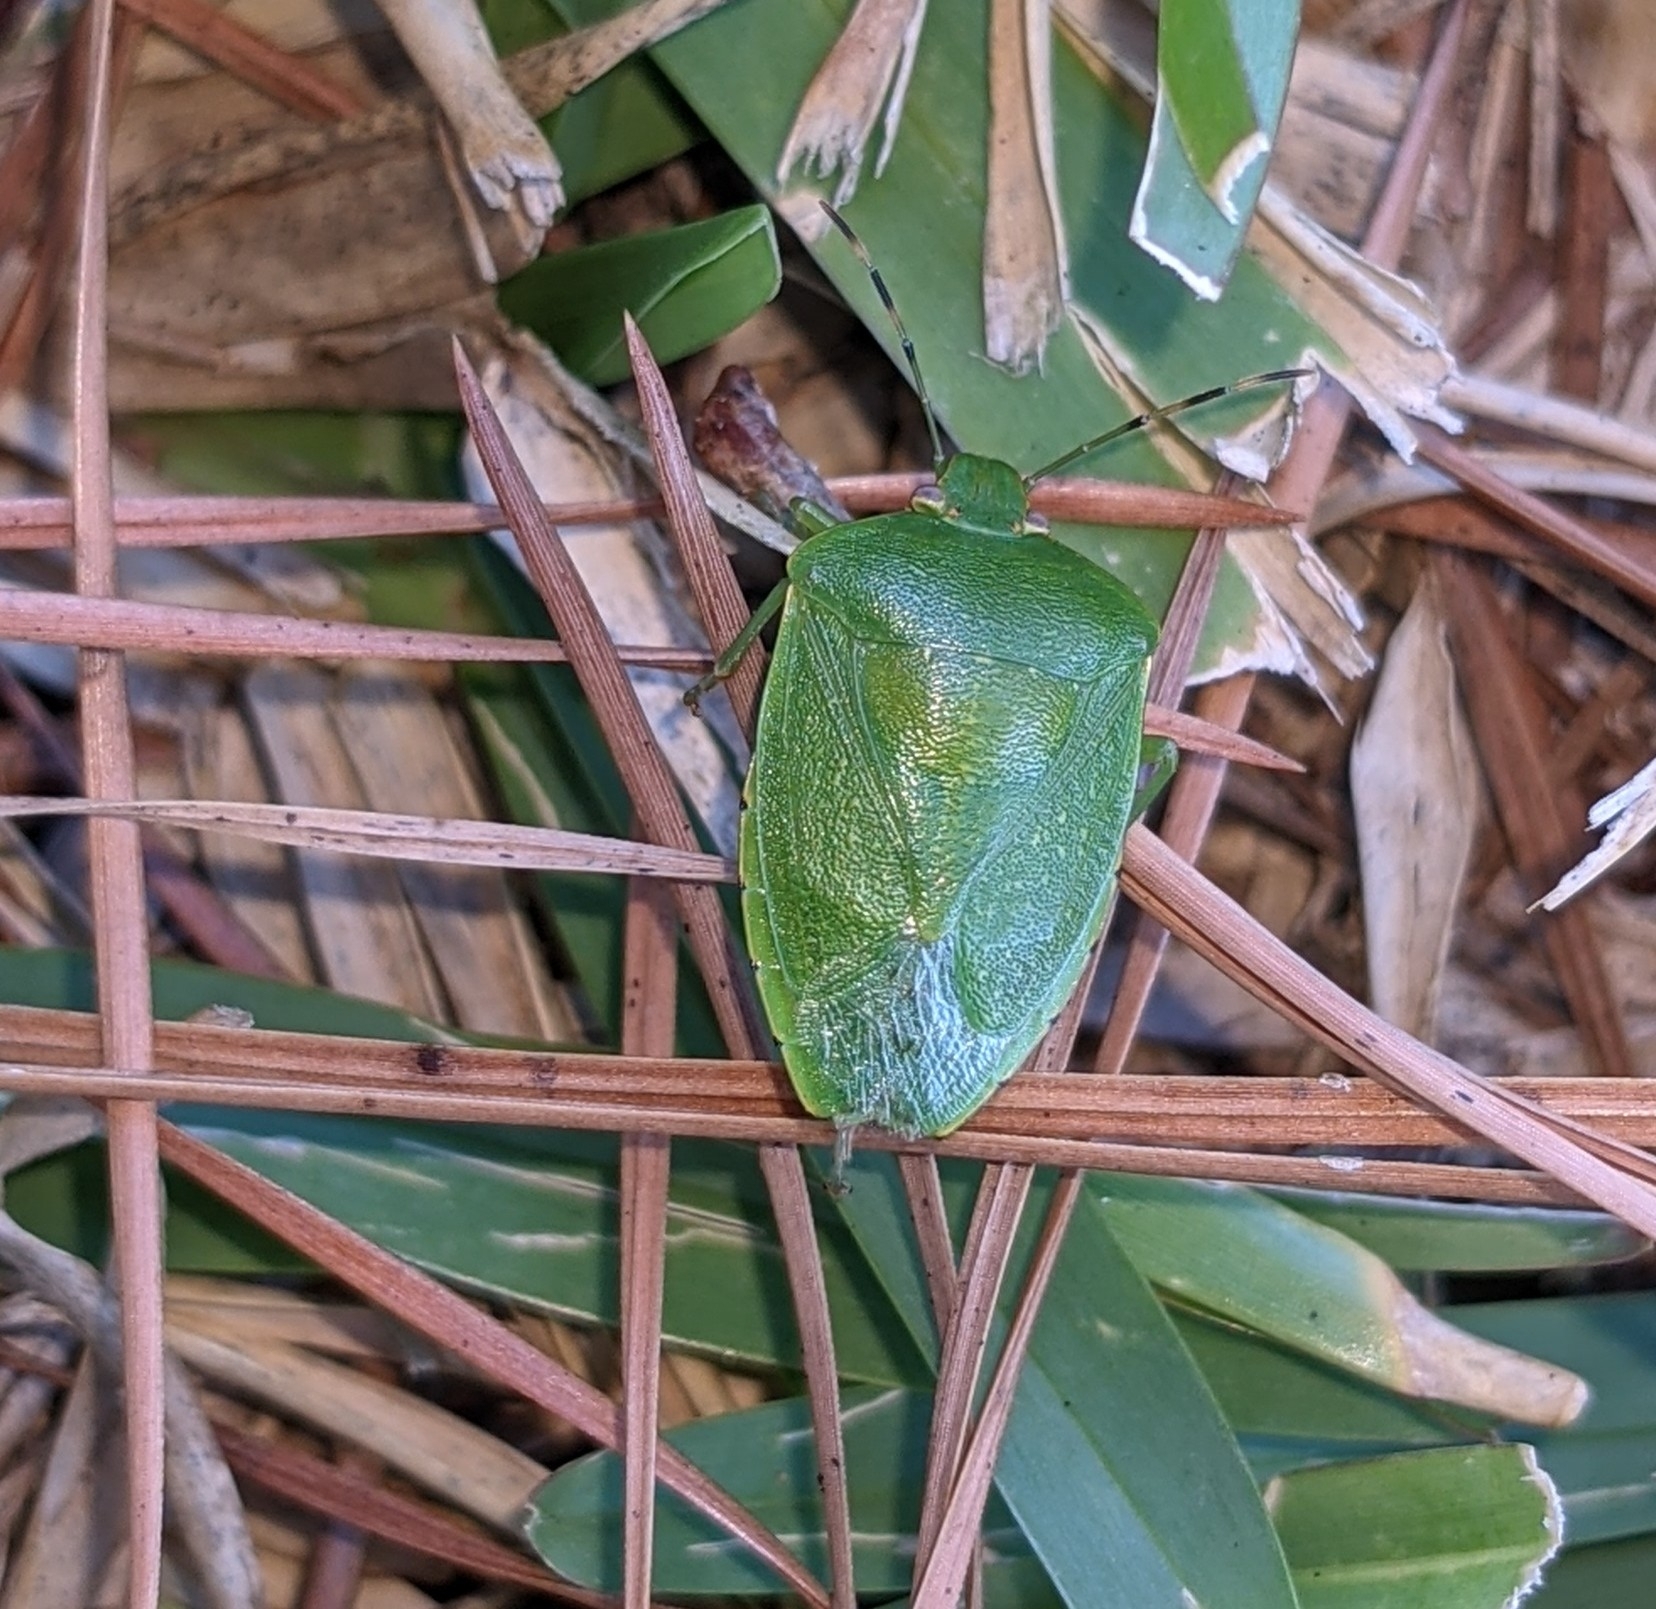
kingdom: Animalia
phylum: Arthropoda
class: Insecta
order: Hemiptera
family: Pentatomidae
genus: Chinavia
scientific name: Chinavia hilaris
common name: Green stink bug
